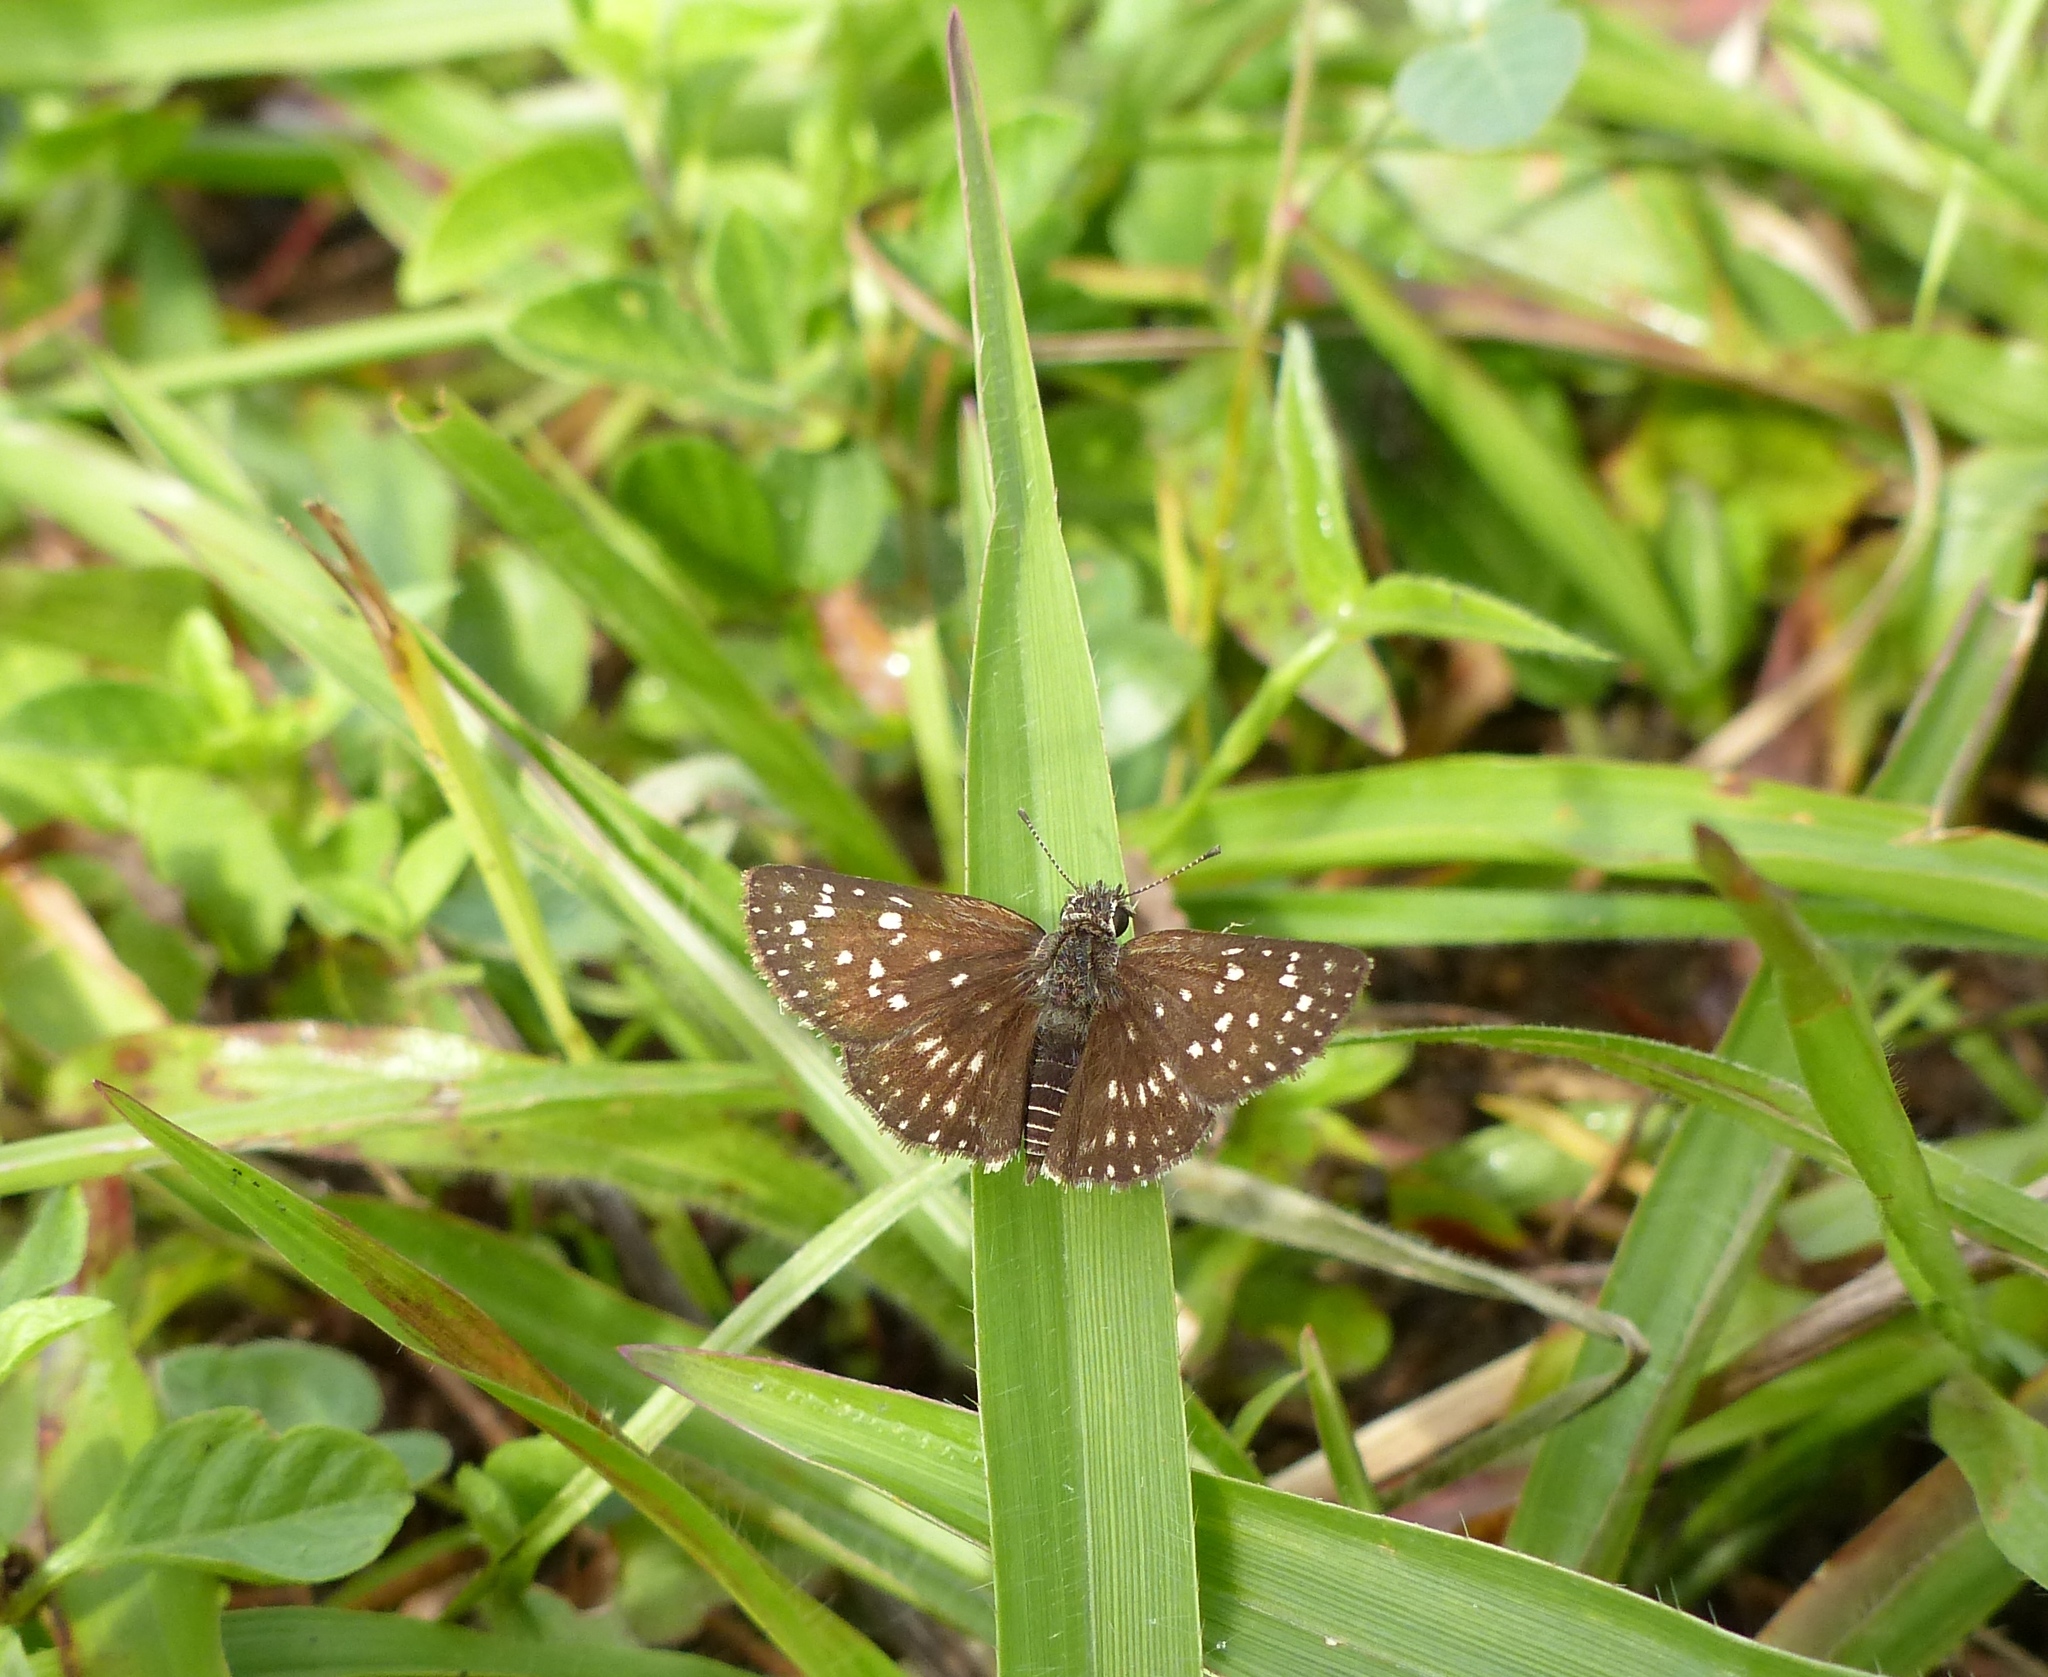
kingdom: Animalia
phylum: Arthropoda
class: Insecta
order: Lepidoptera
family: Hesperiidae
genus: Chirgus
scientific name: Chirgus
